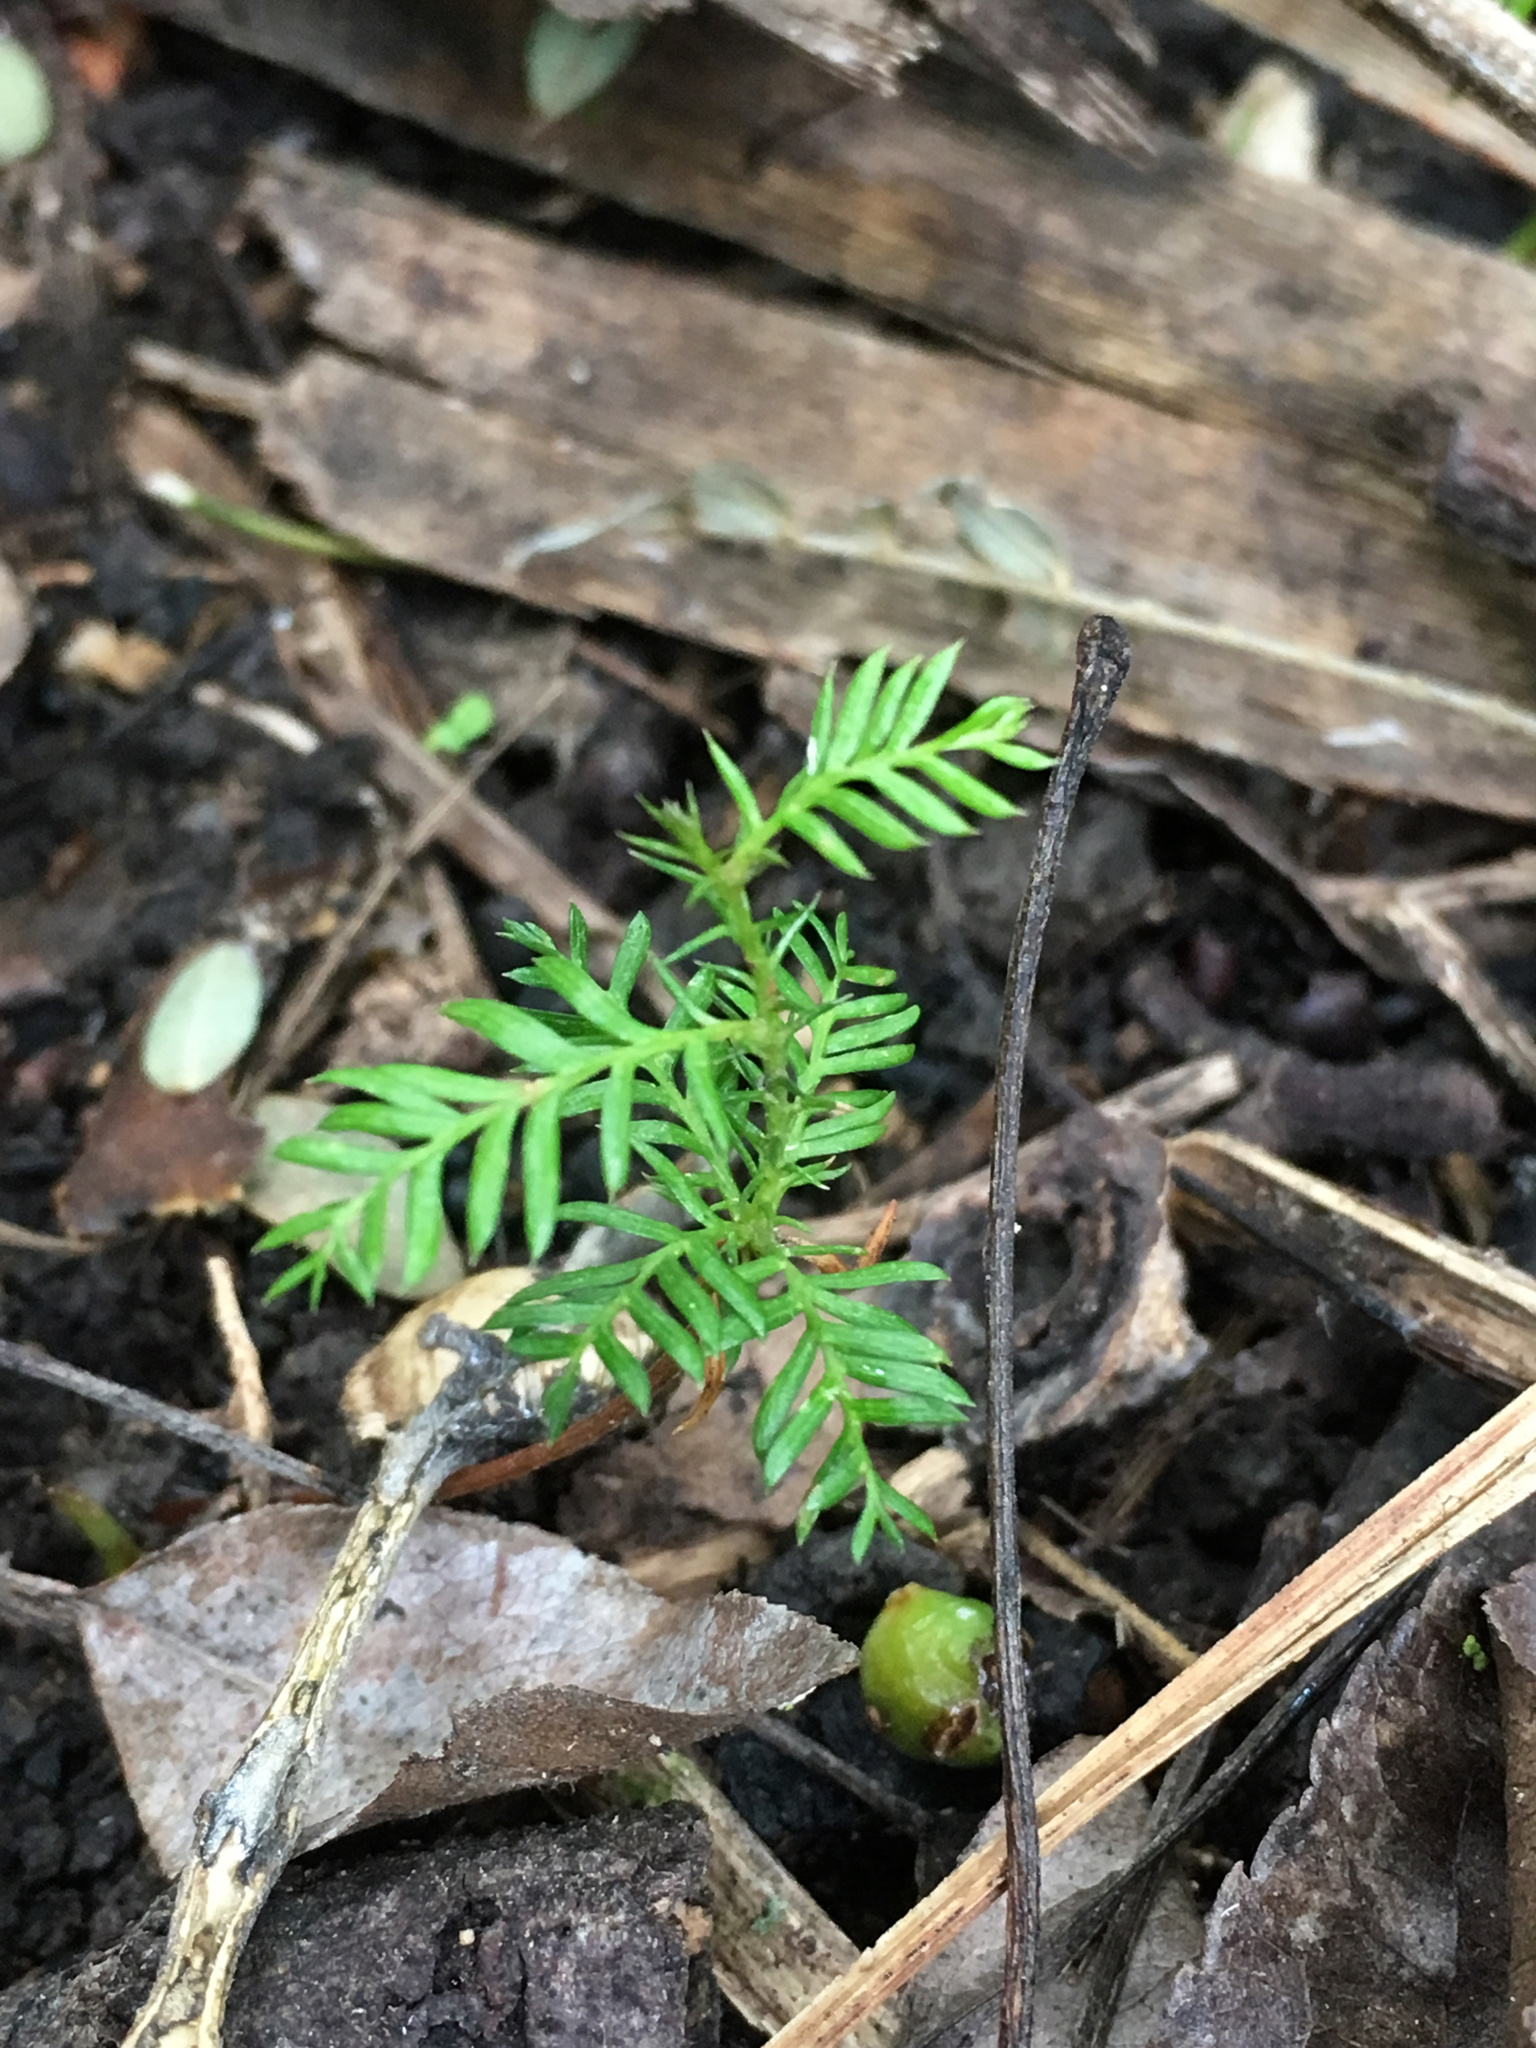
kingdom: Plantae
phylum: Tracheophyta
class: Pinopsida
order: Pinales
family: Podocarpaceae
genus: Dacrycarpus
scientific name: Dacrycarpus dacrydioides
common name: White pine
